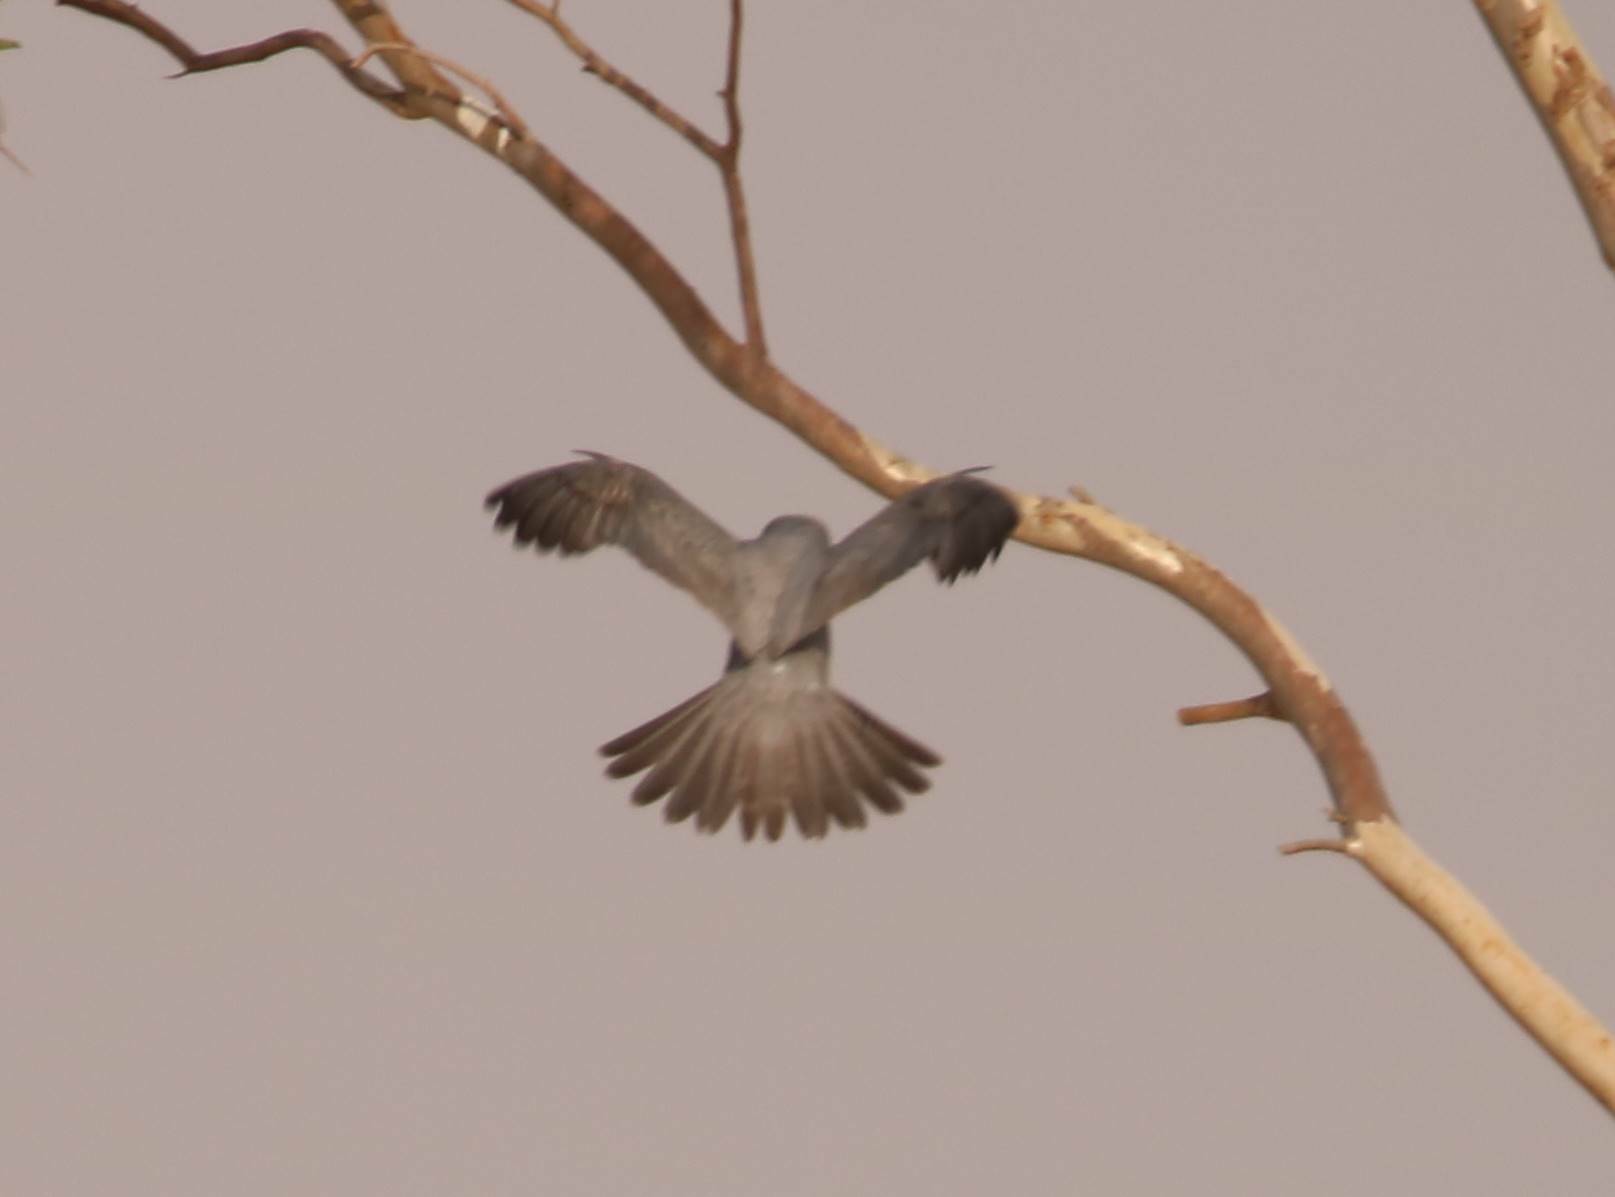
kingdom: Animalia
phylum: Chordata
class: Aves
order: Falconiformes
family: Falconidae
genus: Falco
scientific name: Falco concolor
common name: Sooty falcon
